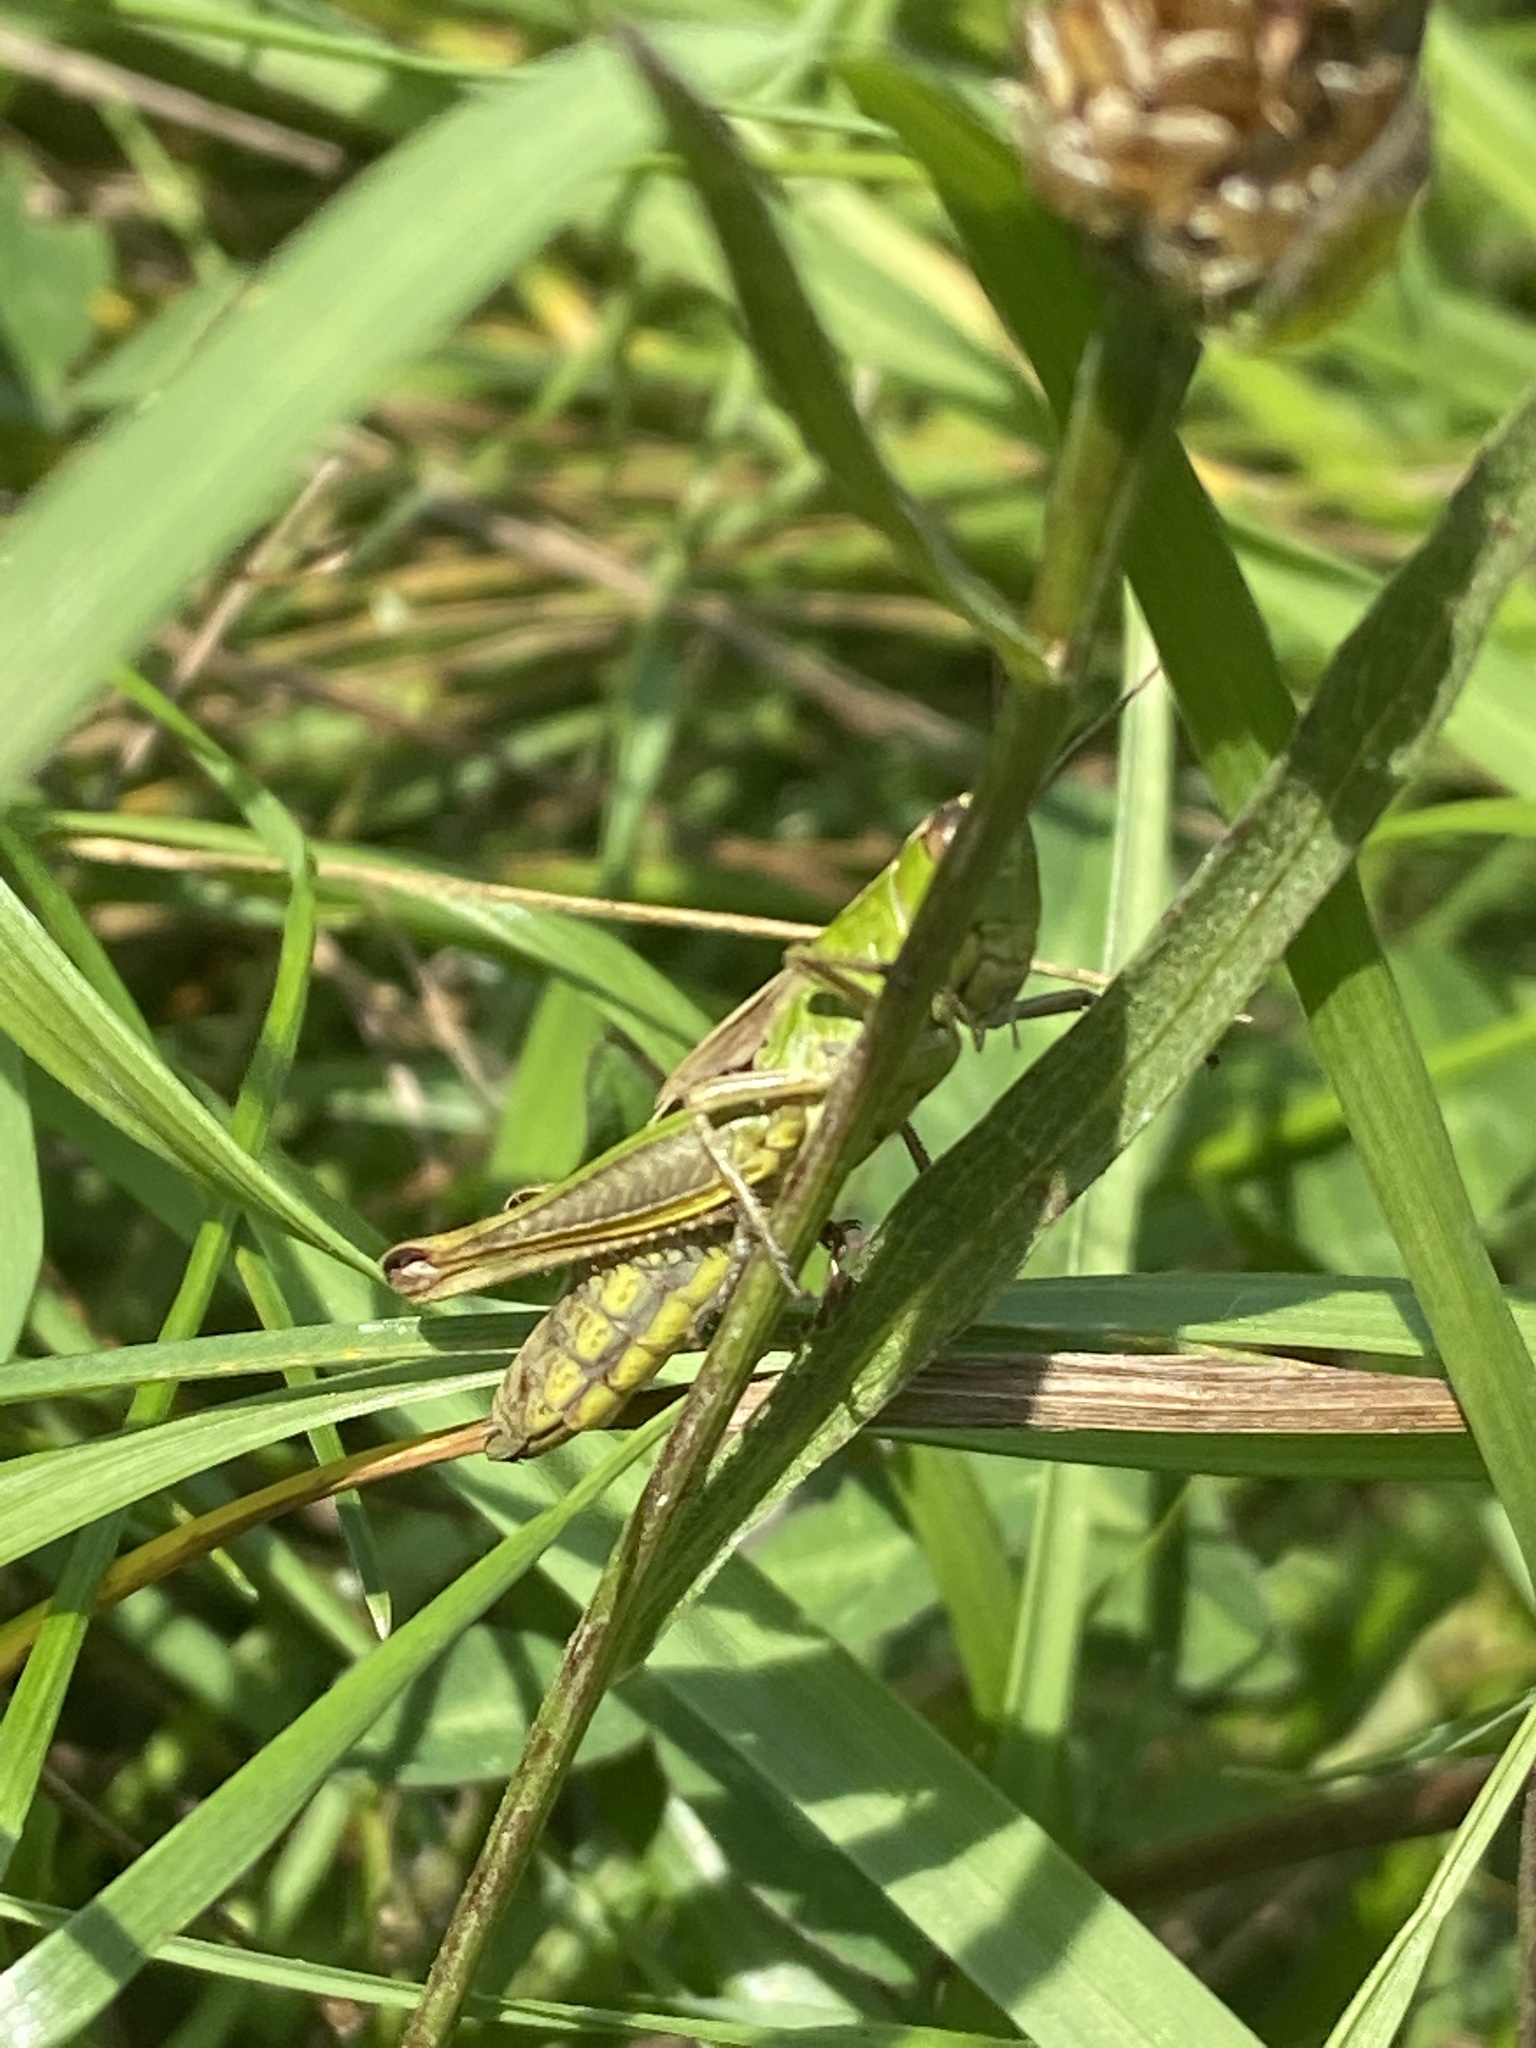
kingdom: Animalia
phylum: Arthropoda
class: Insecta
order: Orthoptera
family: Acrididae
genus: Pseudochorthippus
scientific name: Pseudochorthippus parallelus
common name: Meadow grasshopper
